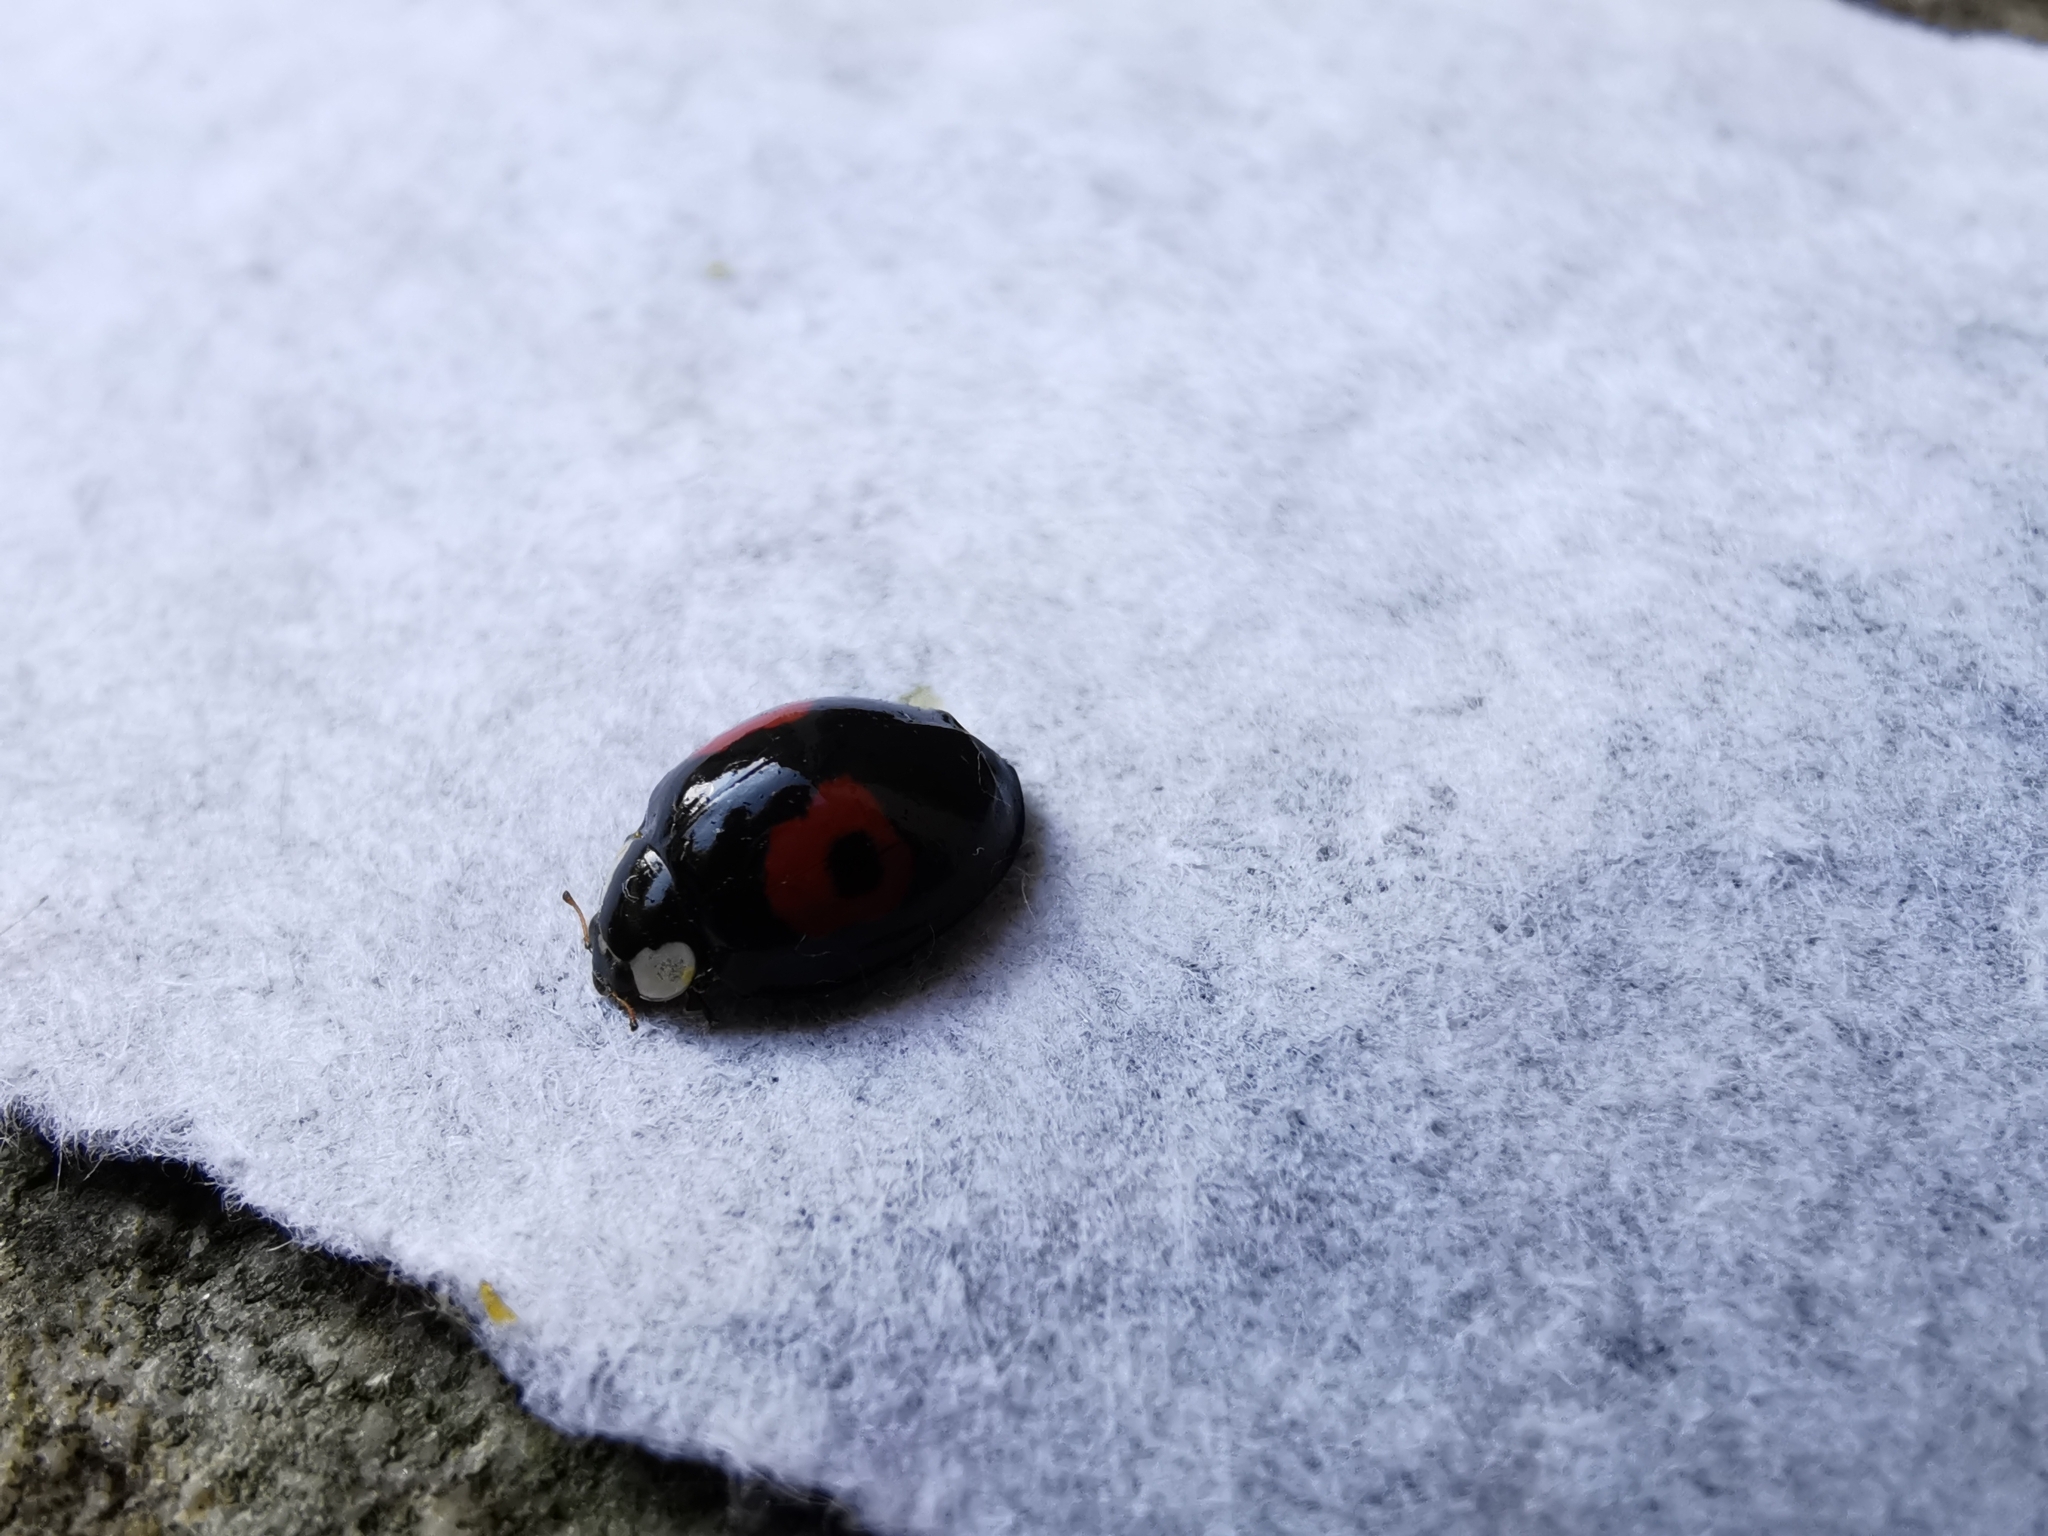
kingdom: Animalia
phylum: Arthropoda
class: Insecta
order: Coleoptera
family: Coccinellidae
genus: Harmonia
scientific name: Harmonia axyridis
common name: Harlequin ladybird
